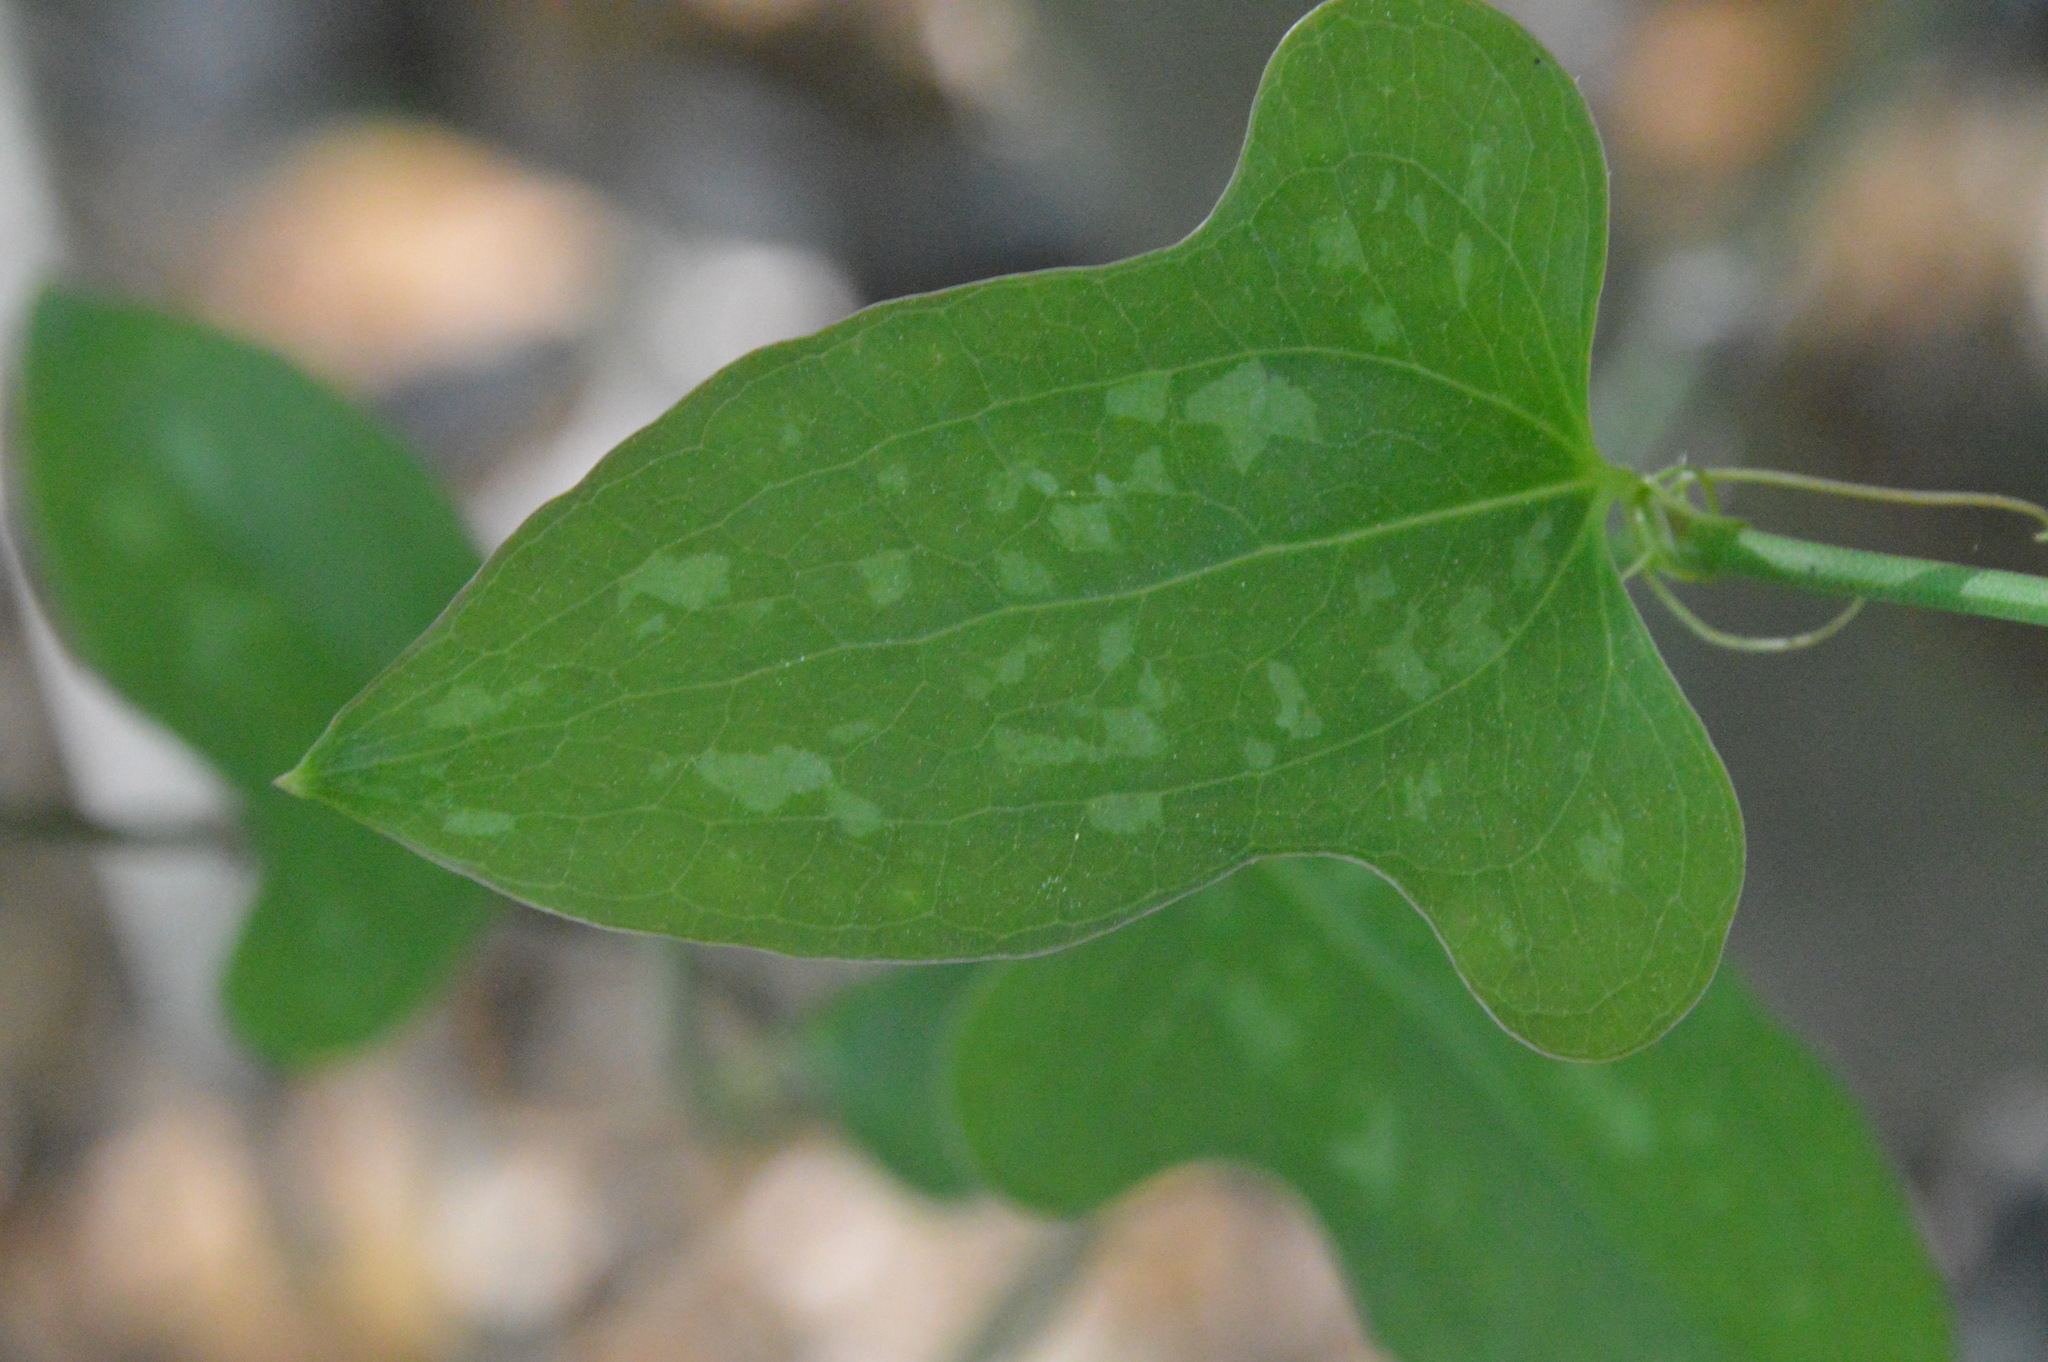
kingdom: Plantae
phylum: Tracheophyta
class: Liliopsida
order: Liliales
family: Smilacaceae
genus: Smilax
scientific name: Smilax bona-nox
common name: Catbrier
